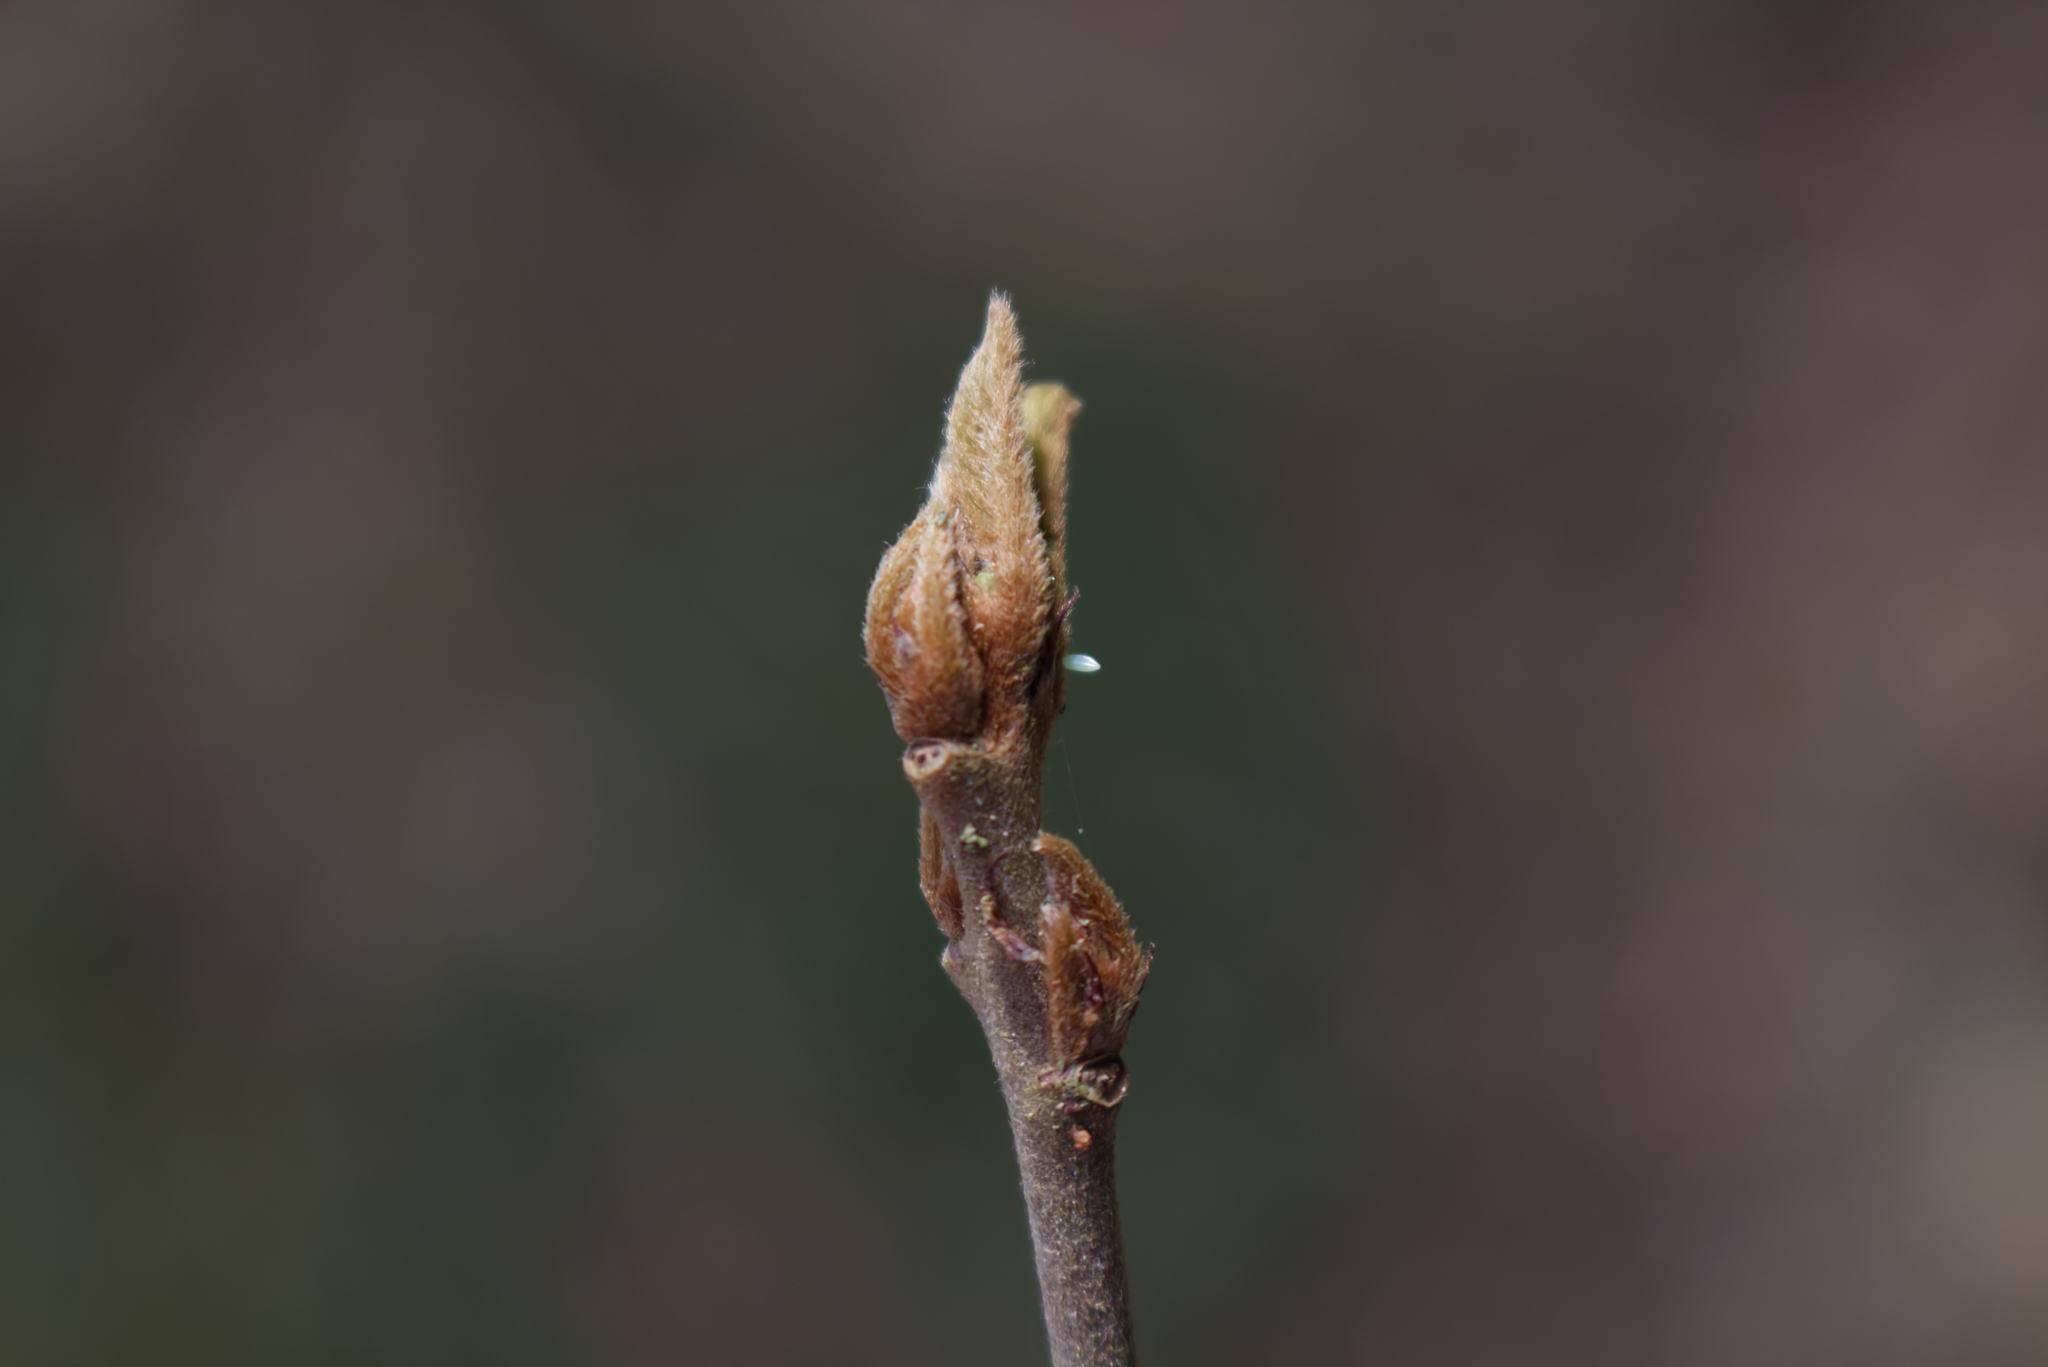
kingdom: Animalia
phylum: Arthropoda
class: Insecta
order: Lepidoptera
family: Pieridae
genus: Gonepteryx
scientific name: Gonepteryx rhamni
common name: Brimstone
